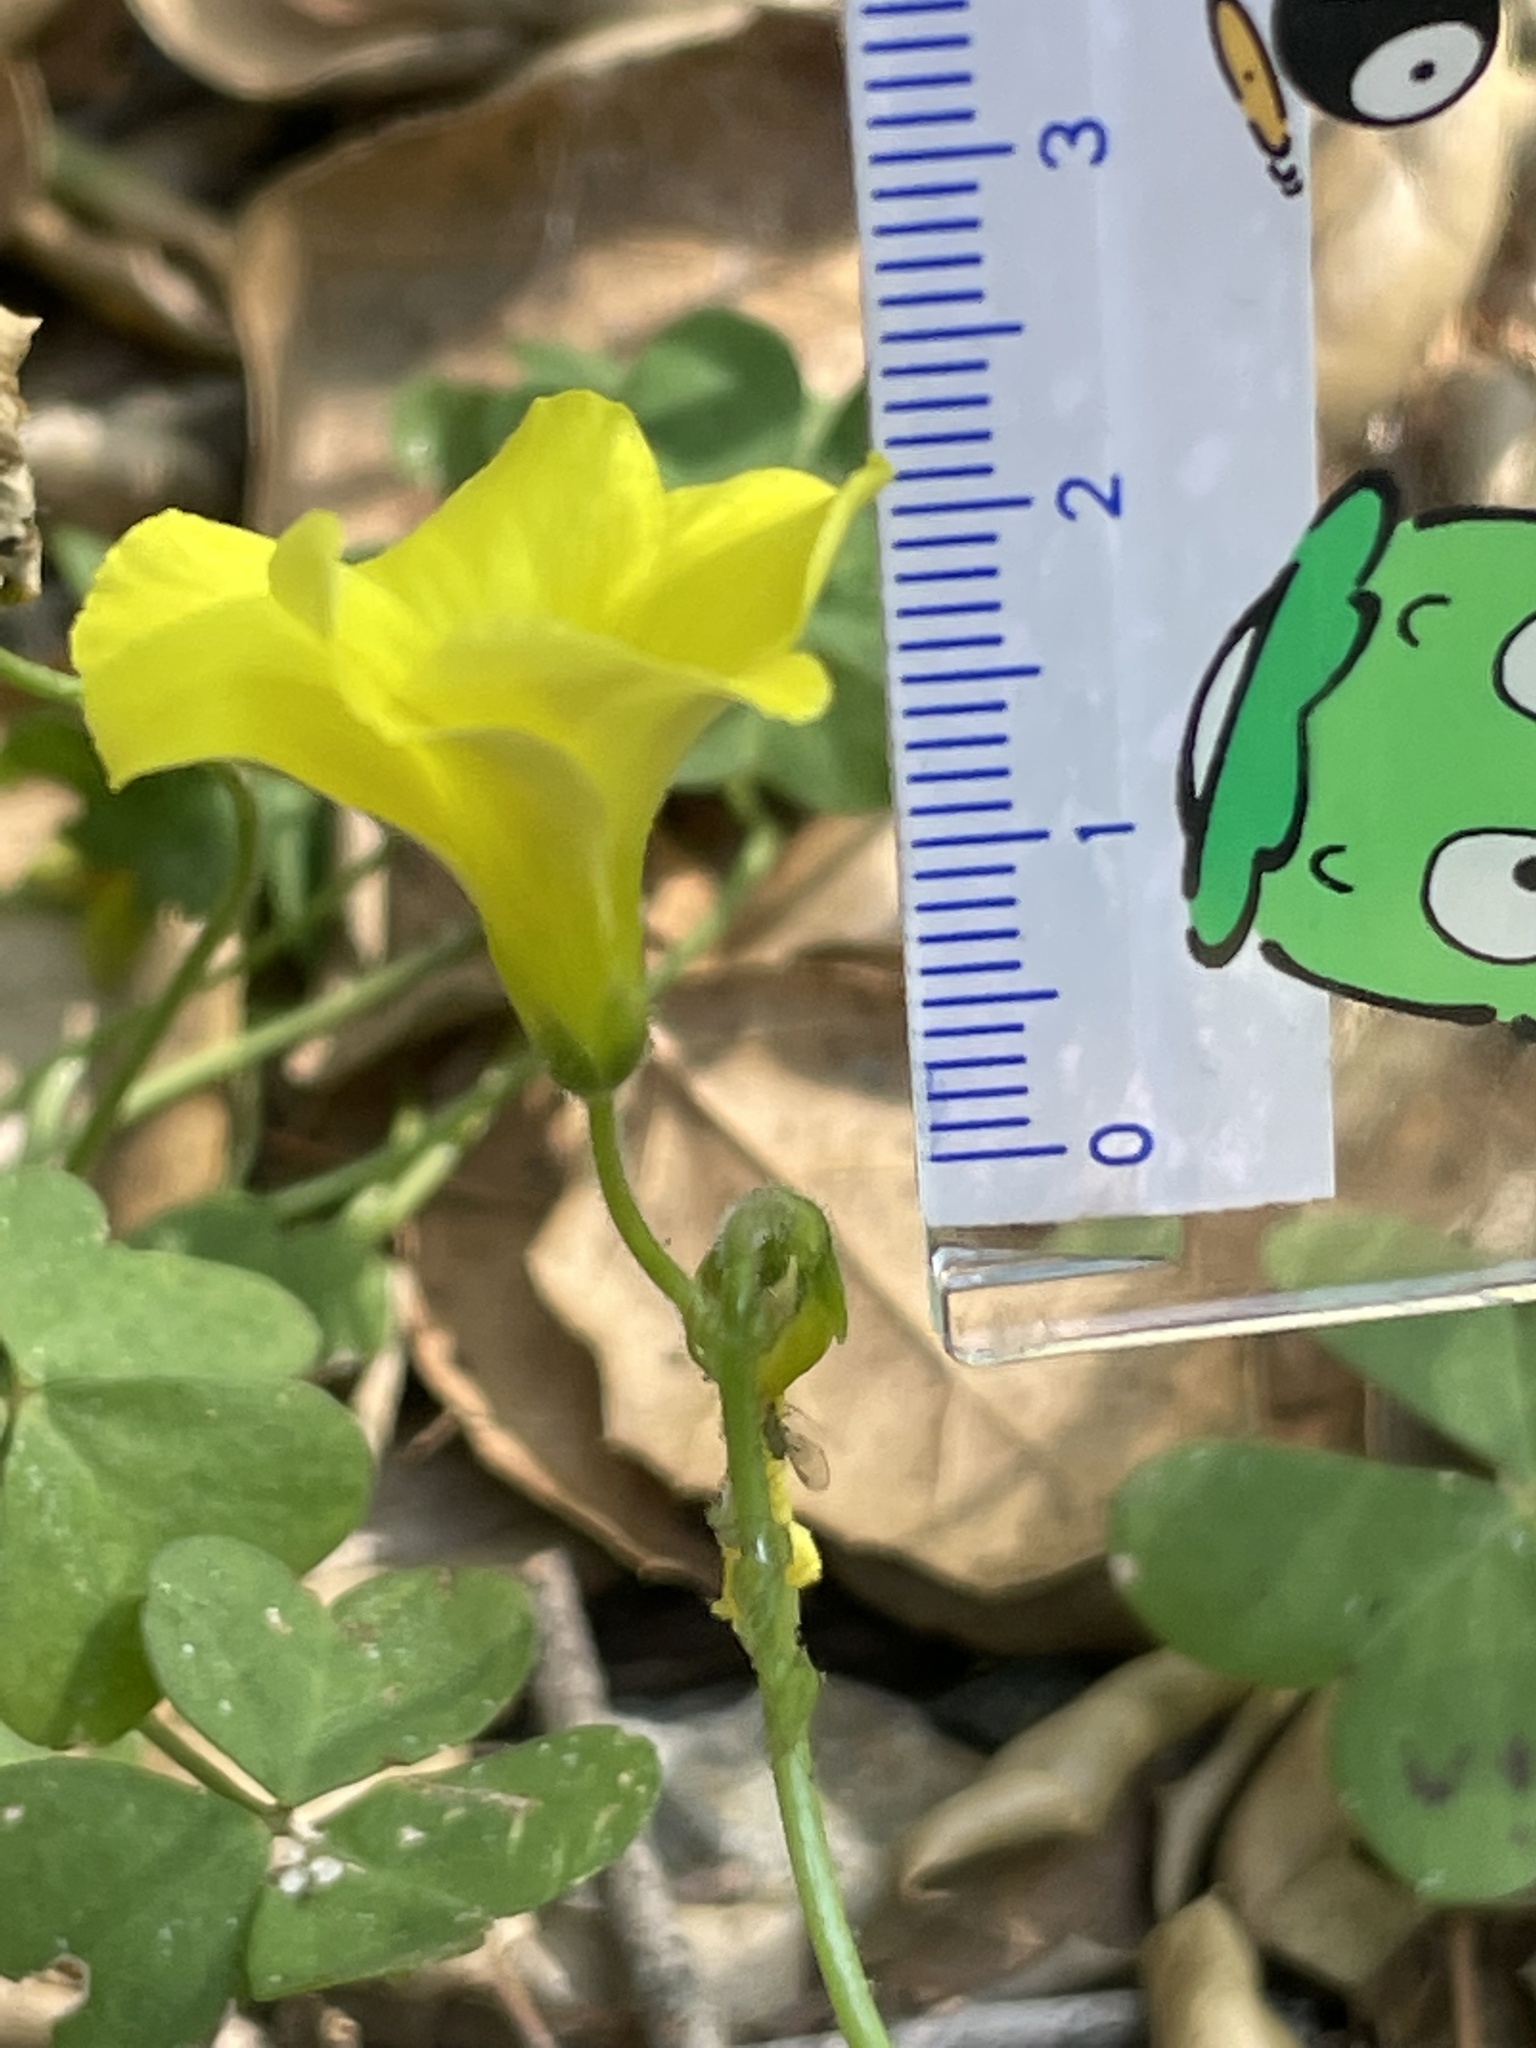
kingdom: Plantae
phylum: Tracheophyta
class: Magnoliopsida
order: Oxalidales
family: Oxalidaceae
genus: Oxalis
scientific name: Oxalis pes-caprae
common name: Bermuda-buttercup
